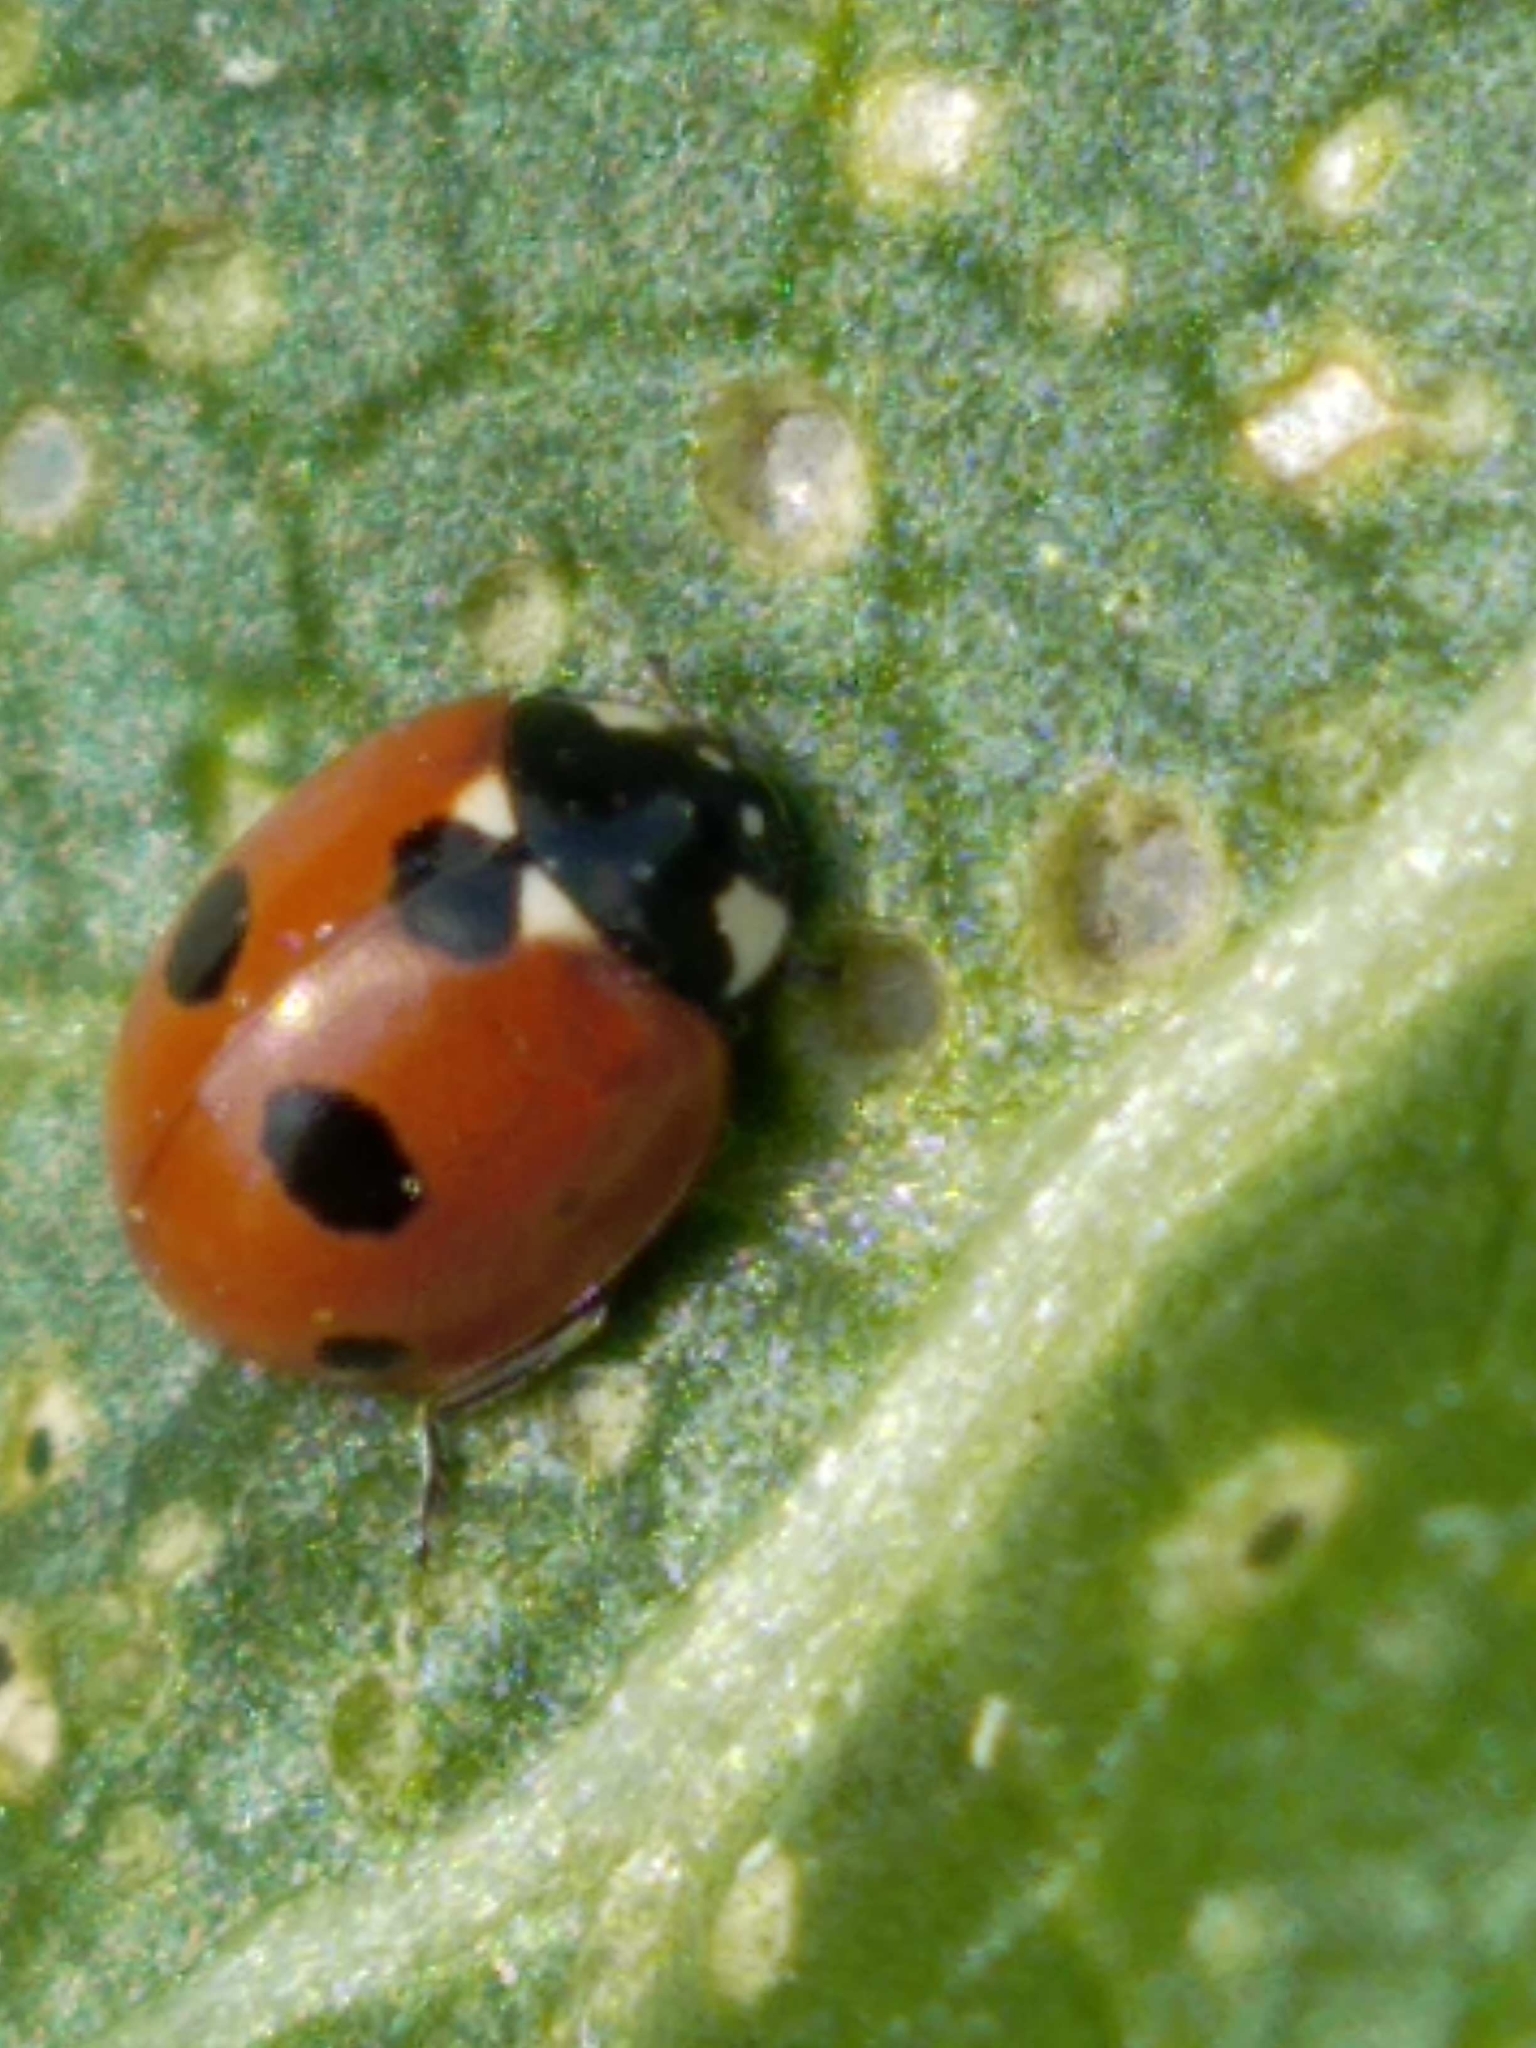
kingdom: Animalia
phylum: Arthropoda
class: Insecta
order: Coleoptera
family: Coccinellidae
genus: Coccinella
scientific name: Coccinella quinquepunctata
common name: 5-spot ladybird
